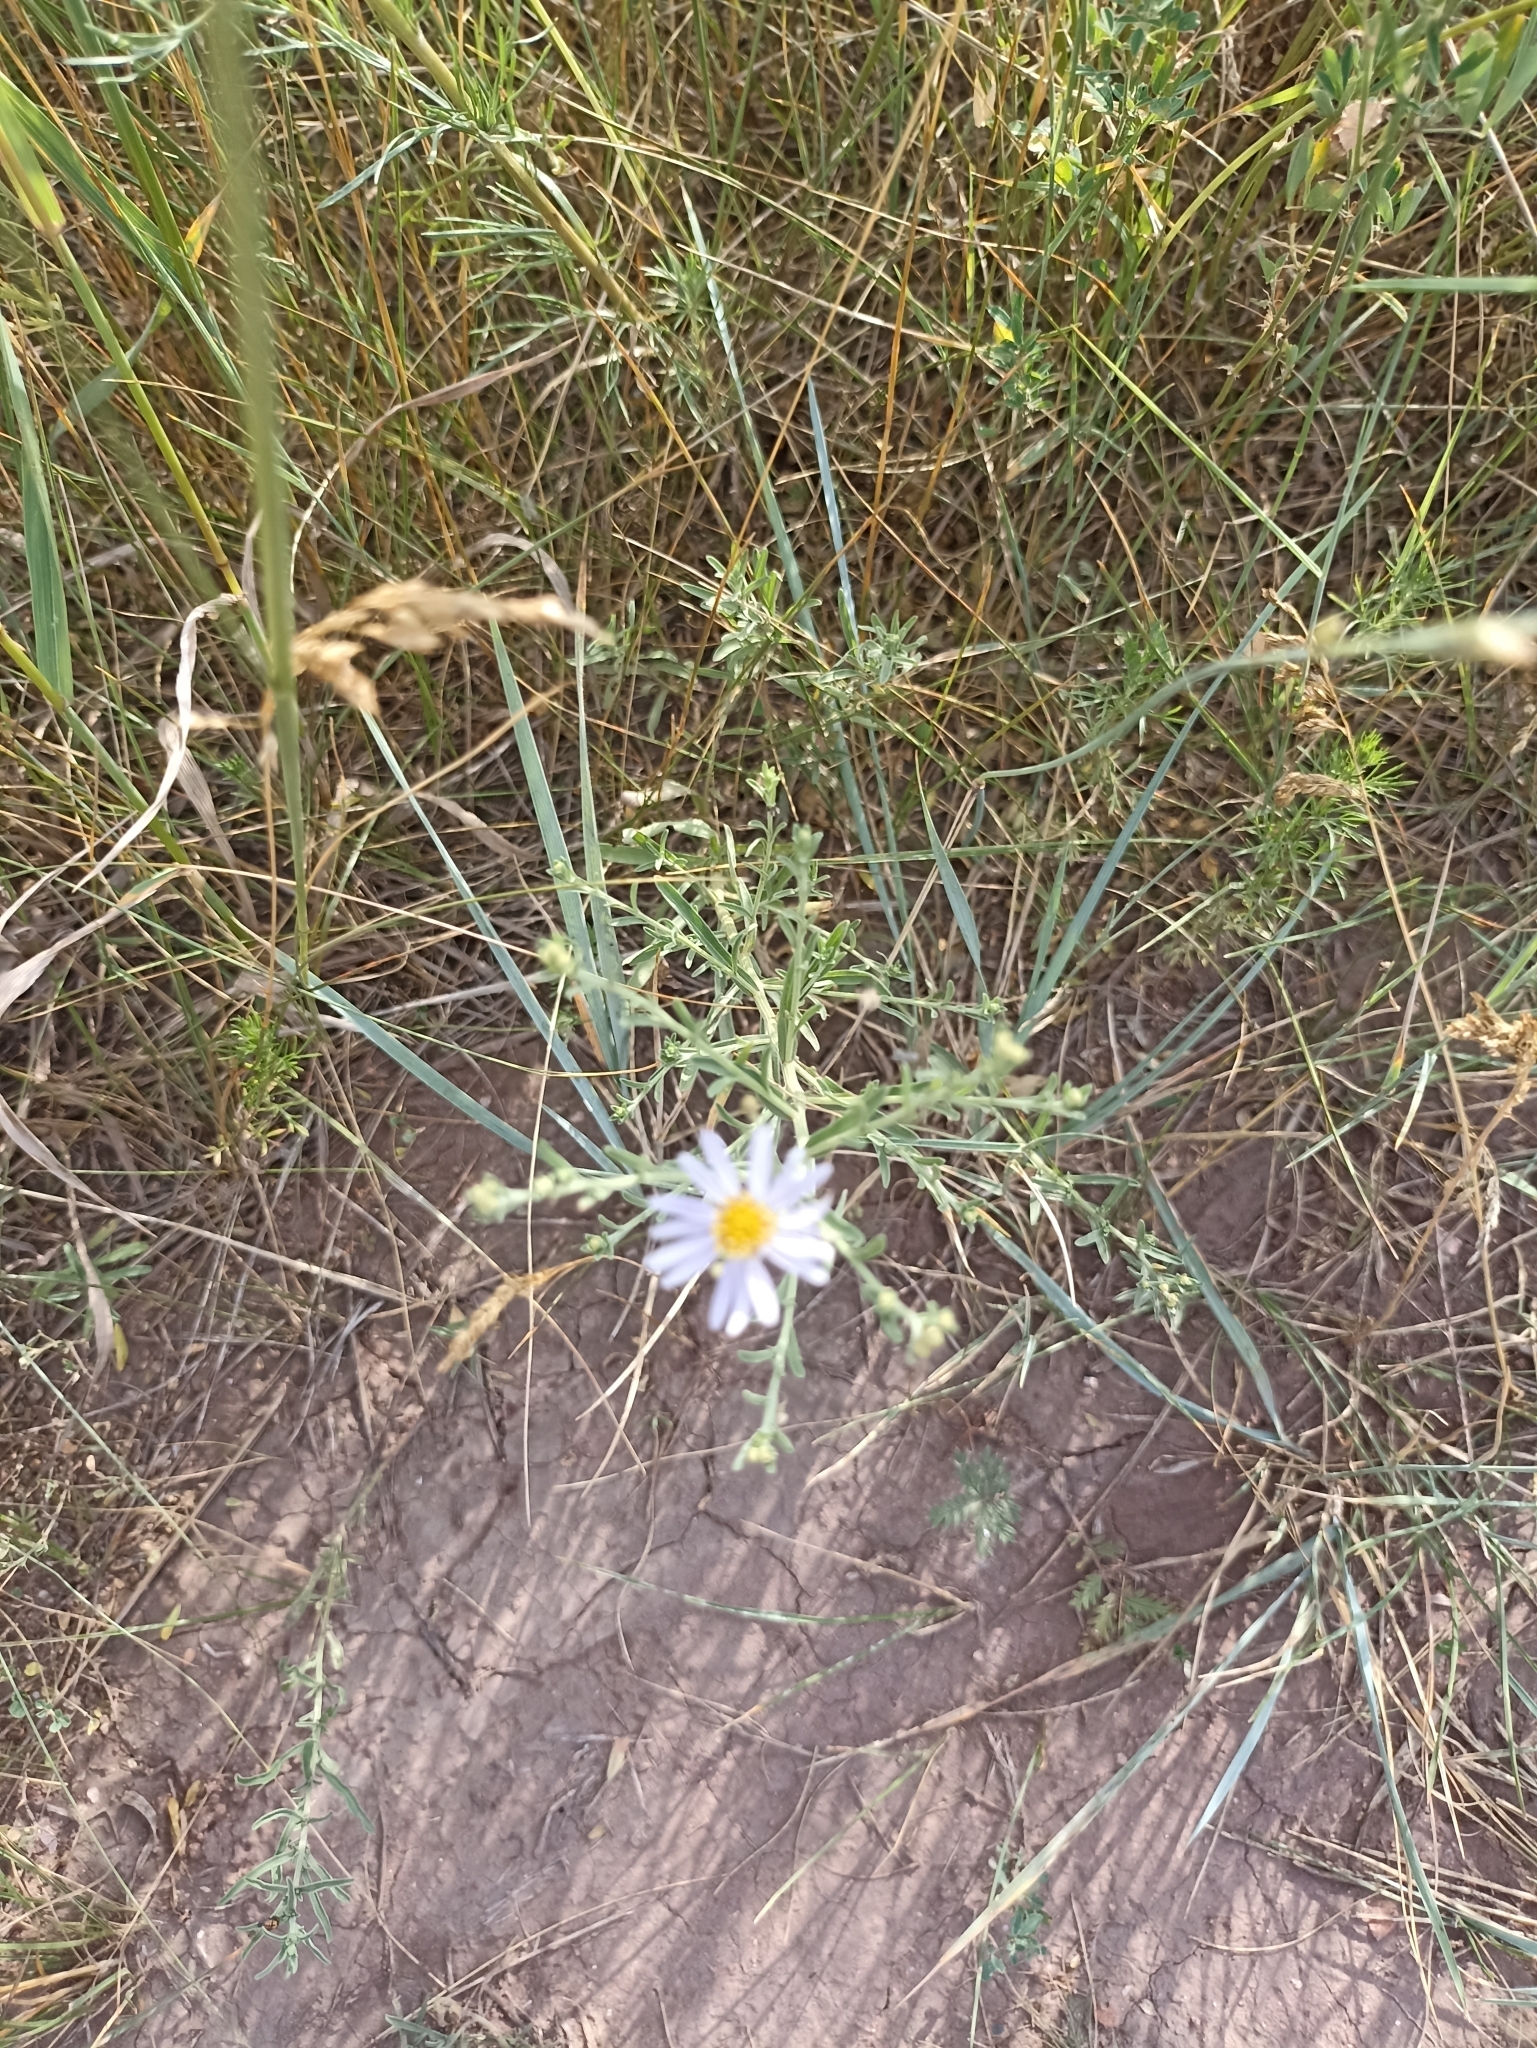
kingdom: Plantae
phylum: Tracheophyta
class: Magnoliopsida
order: Asterales
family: Asteraceae
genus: Heteropappus
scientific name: Heteropappus altaicus
